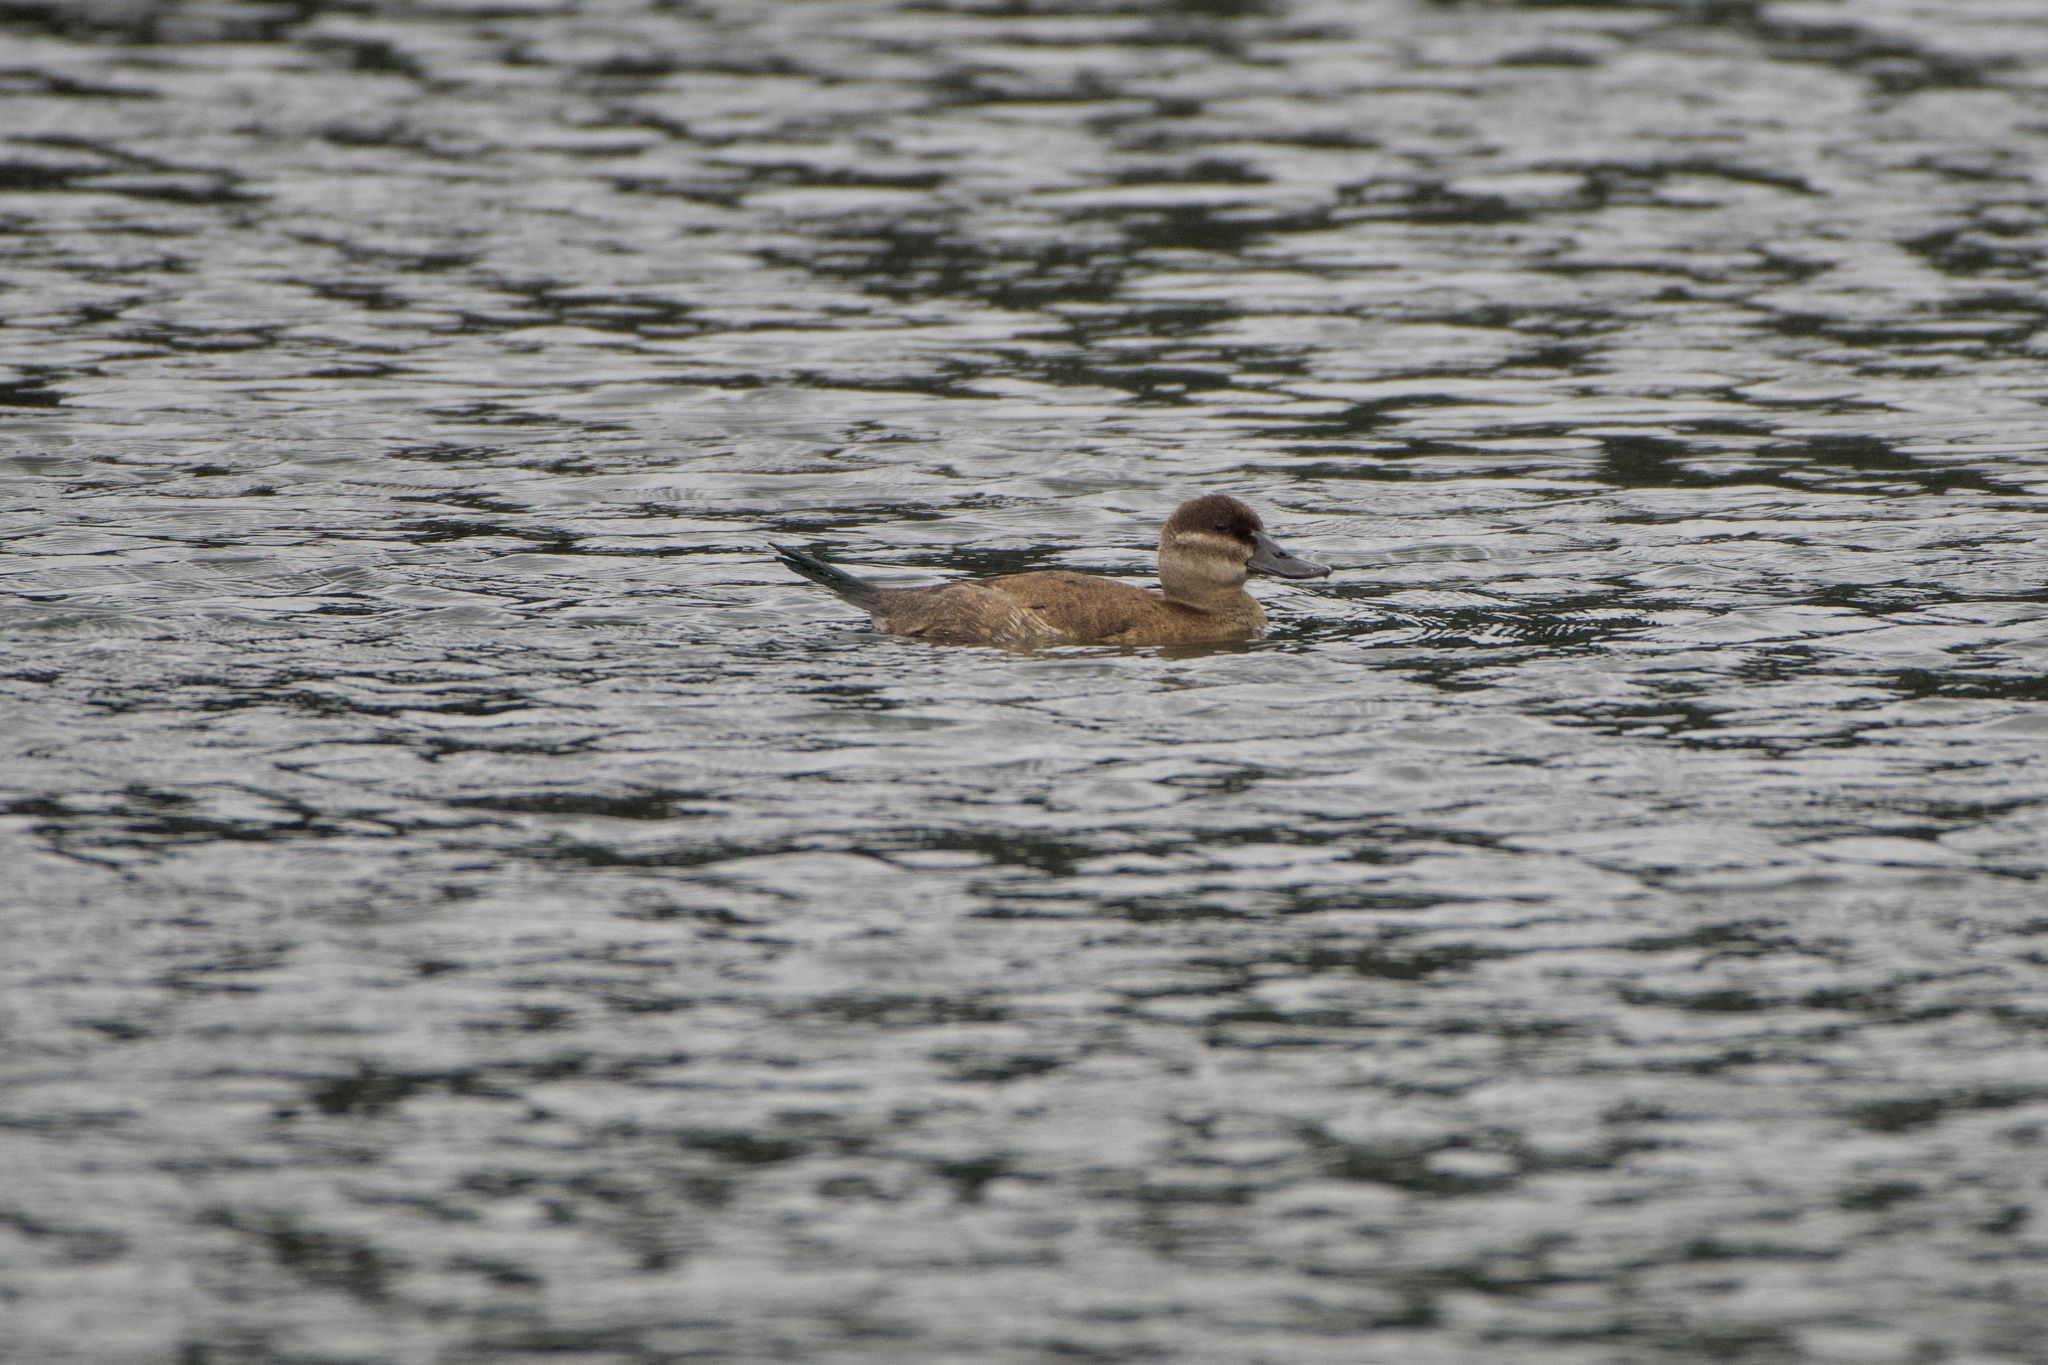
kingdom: Animalia
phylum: Chordata
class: Aves
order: Anseriformes
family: Anatidae
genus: Oxyura
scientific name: Oxyura jamaicensis
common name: Ruddy duck
